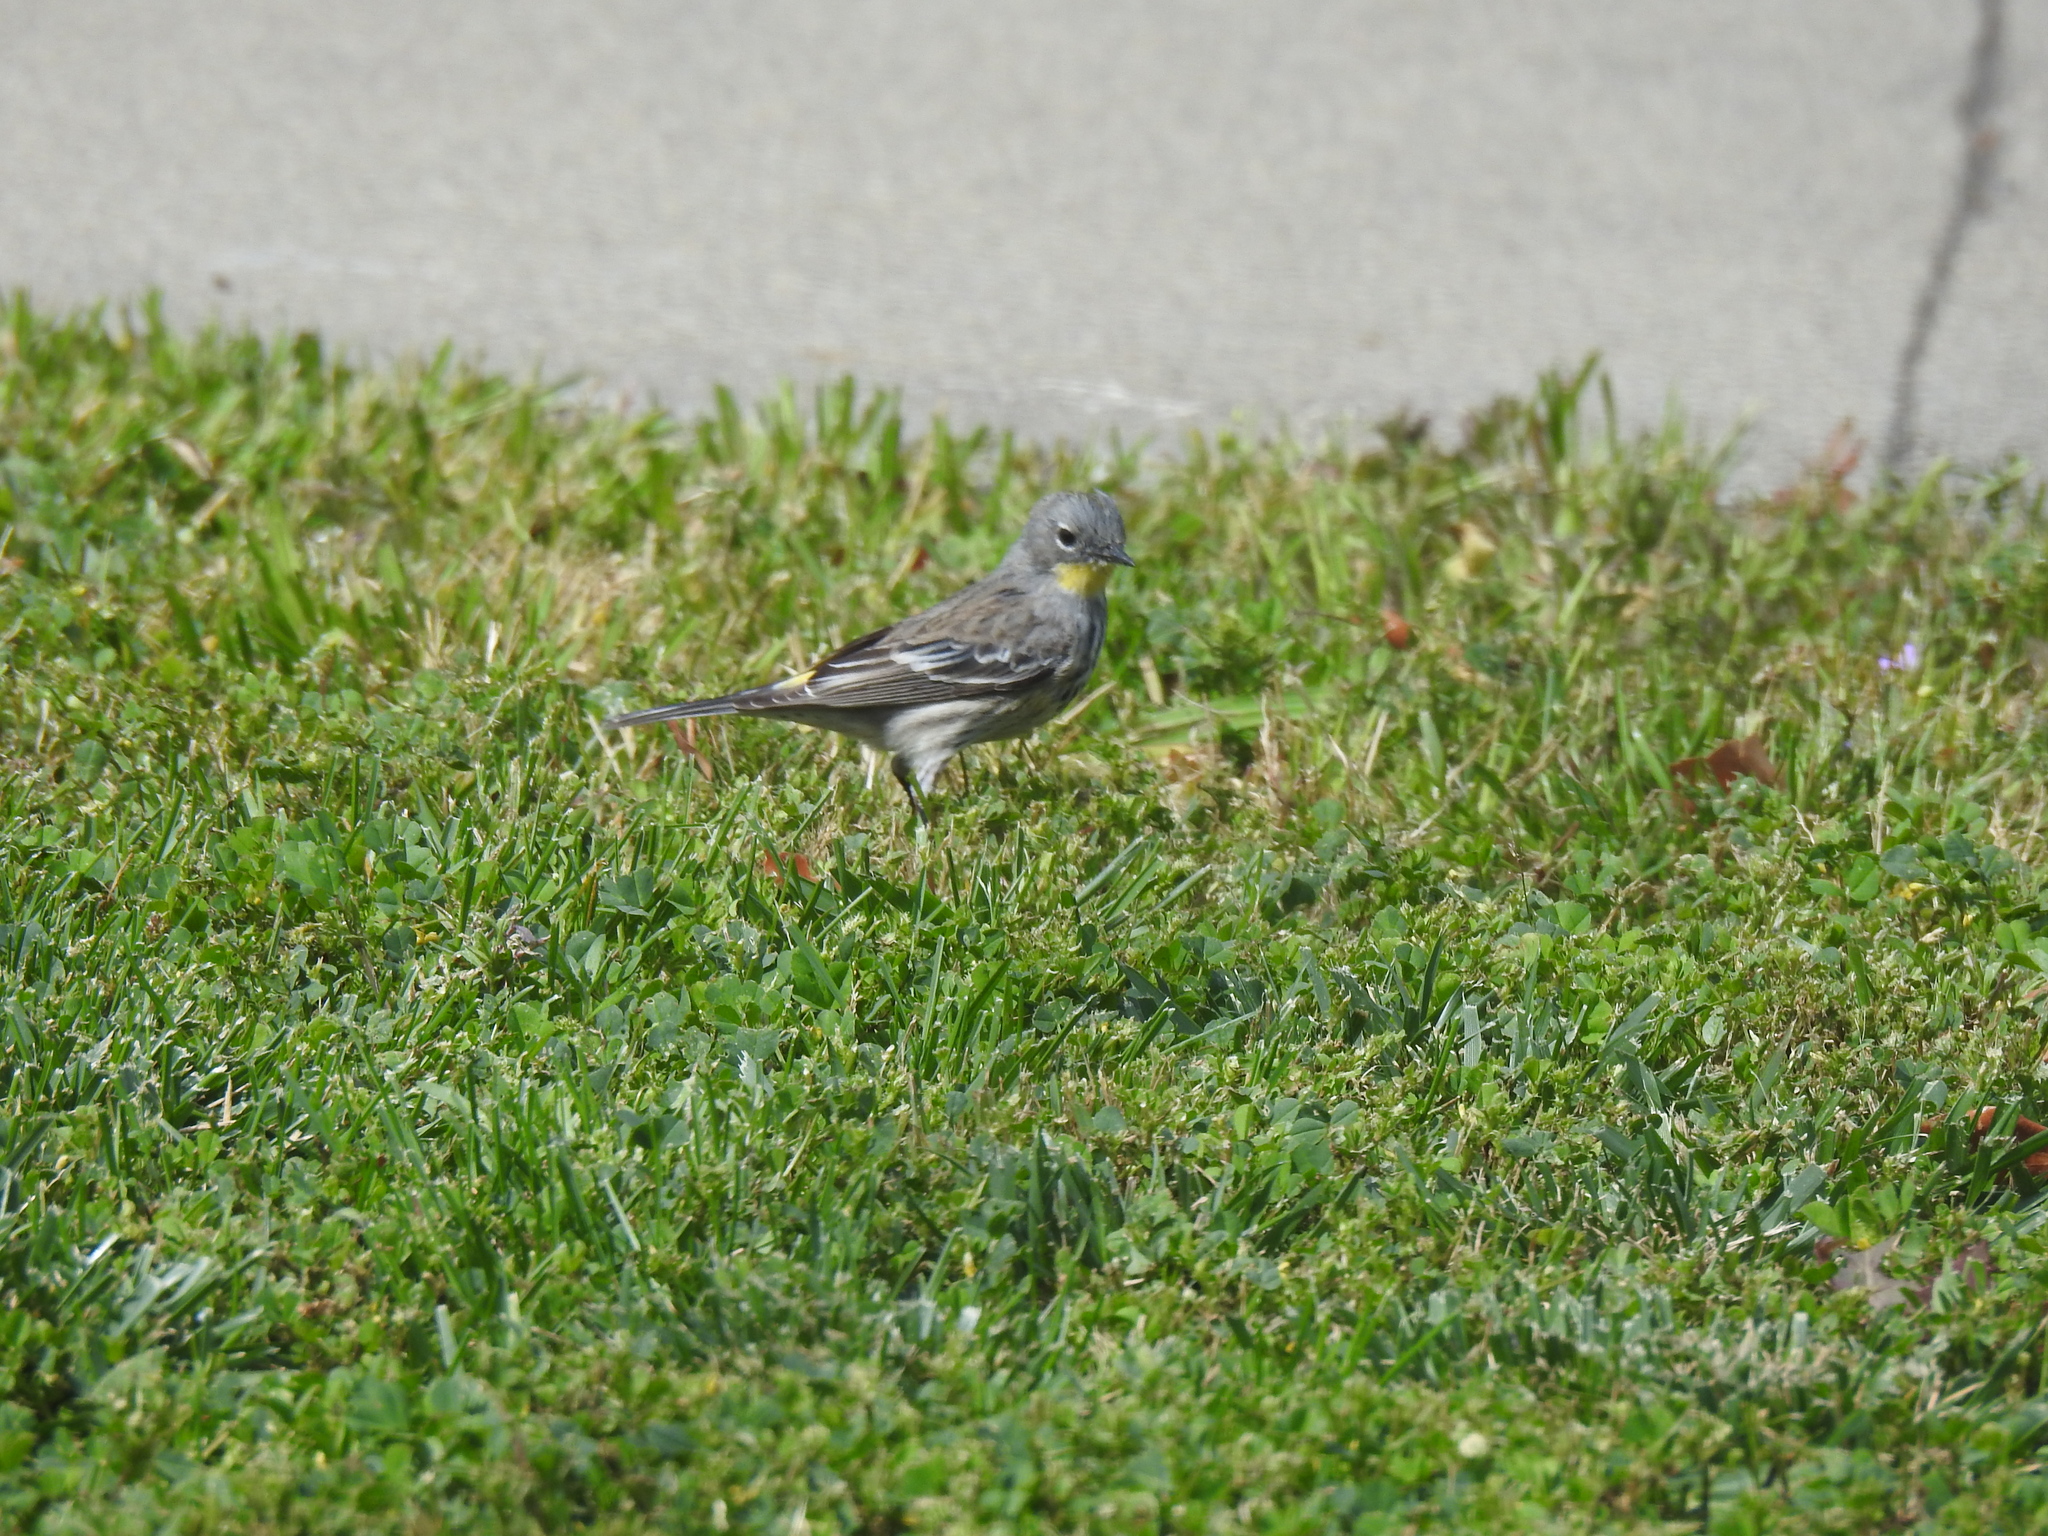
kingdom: Animalia
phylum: Chordata
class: Aves
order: Passeriformes
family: Parulidae
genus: Setophaga
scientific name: Setophaga coronata
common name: Myrtle warbler
